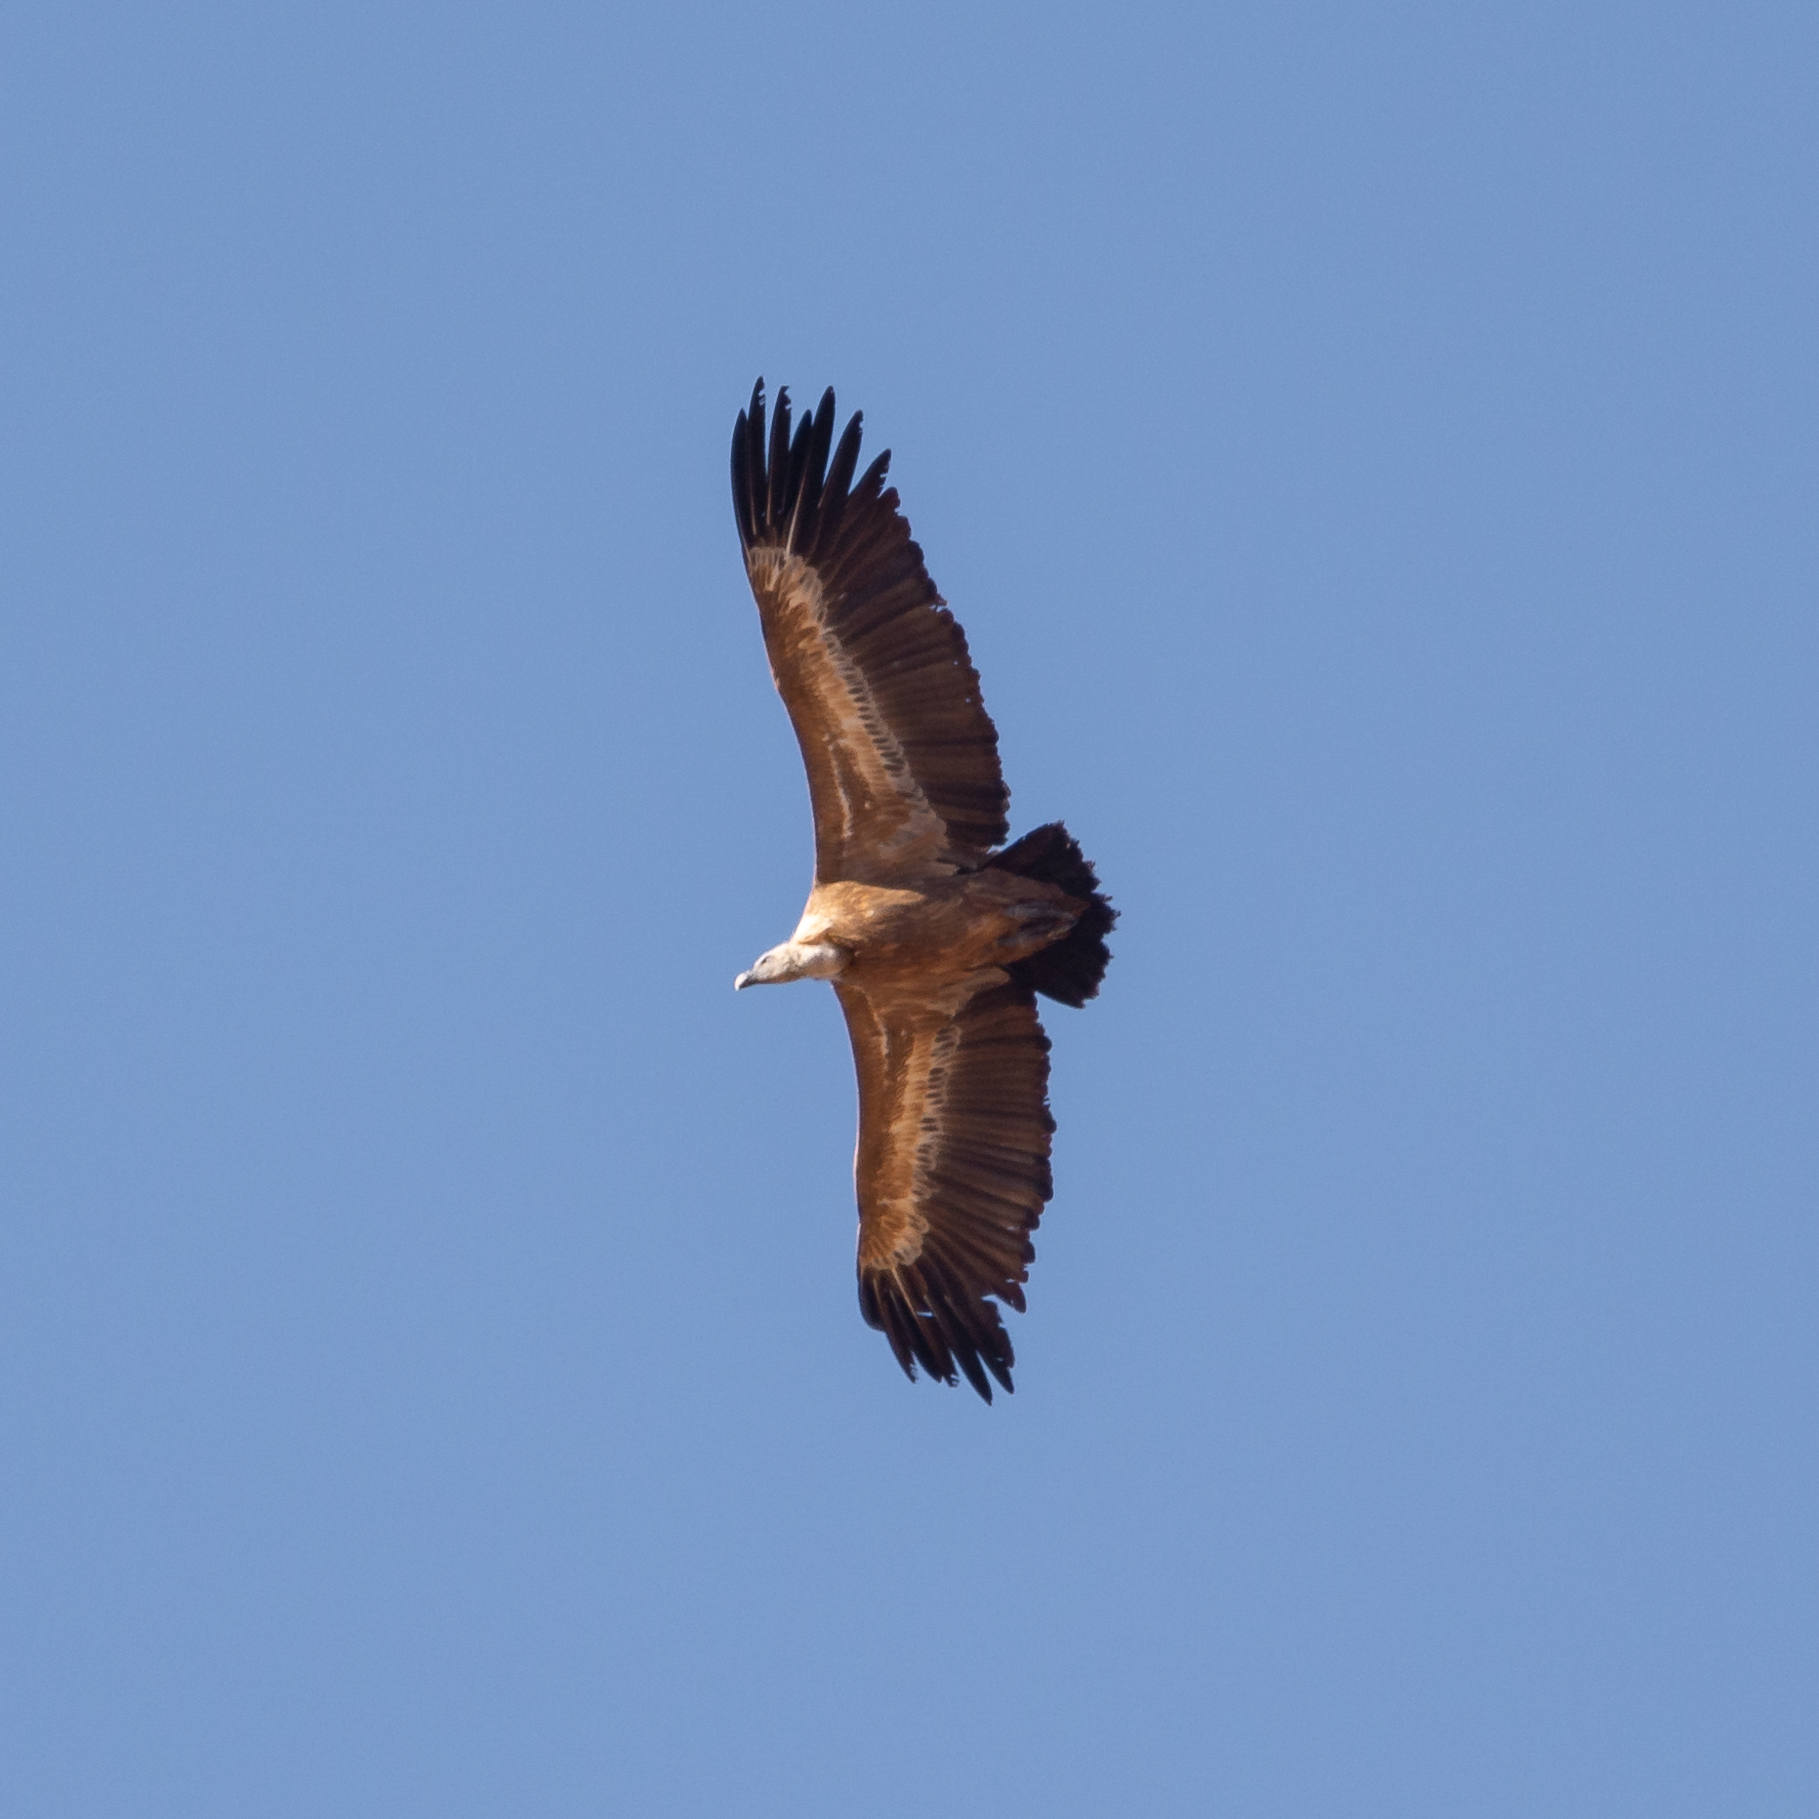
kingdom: Animalia
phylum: Chordata
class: Aves
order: Accipitriformes
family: Accipitridae
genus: Gyps
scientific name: Gyps fulvus
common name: Griffon vulture
